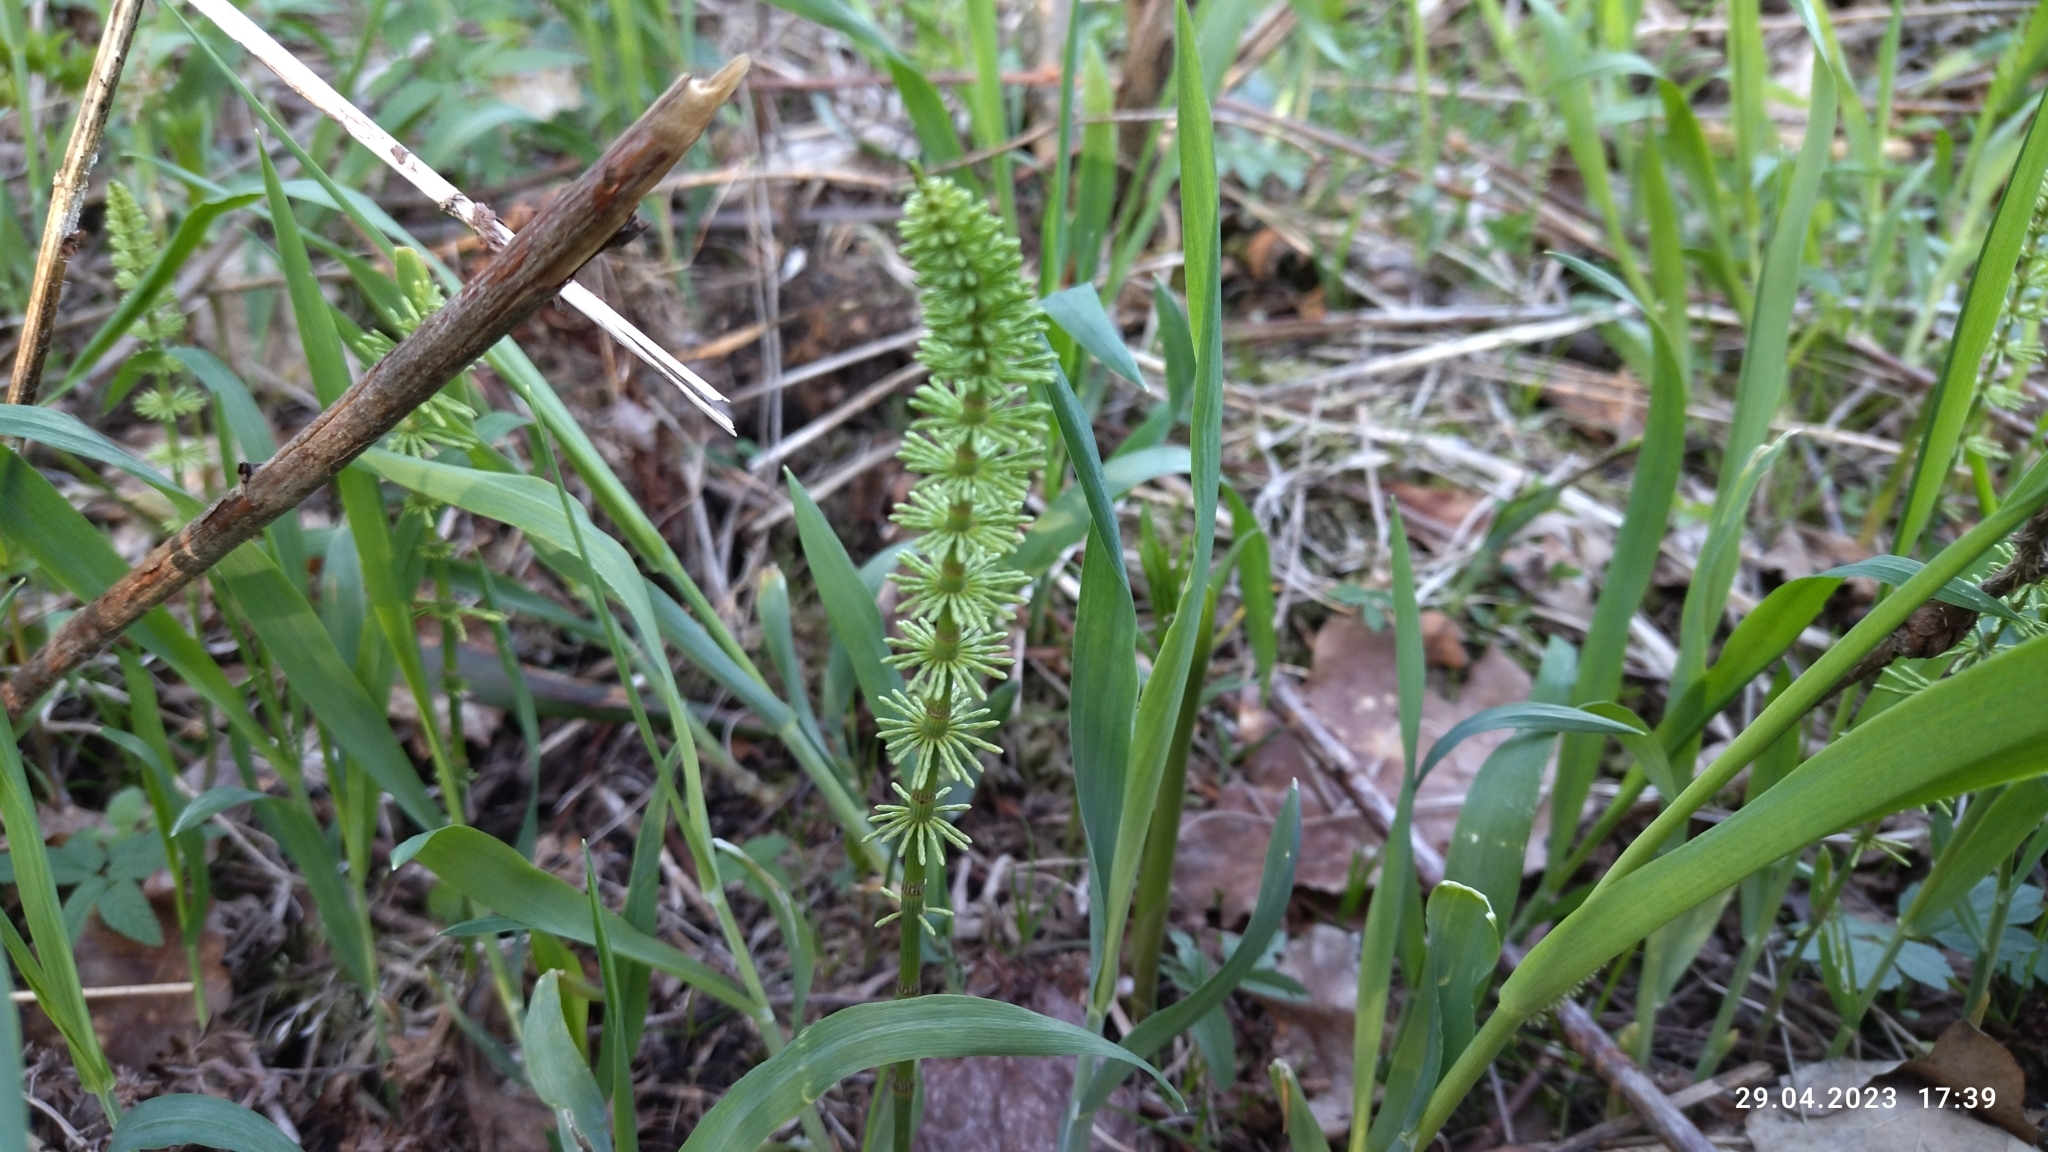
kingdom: Plantae
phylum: Tracheophyta
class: Polypodiopsida
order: Equisetales
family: Equisetaceae
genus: Equisetum
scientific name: Equisetum pratense
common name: Meadow horsetail
